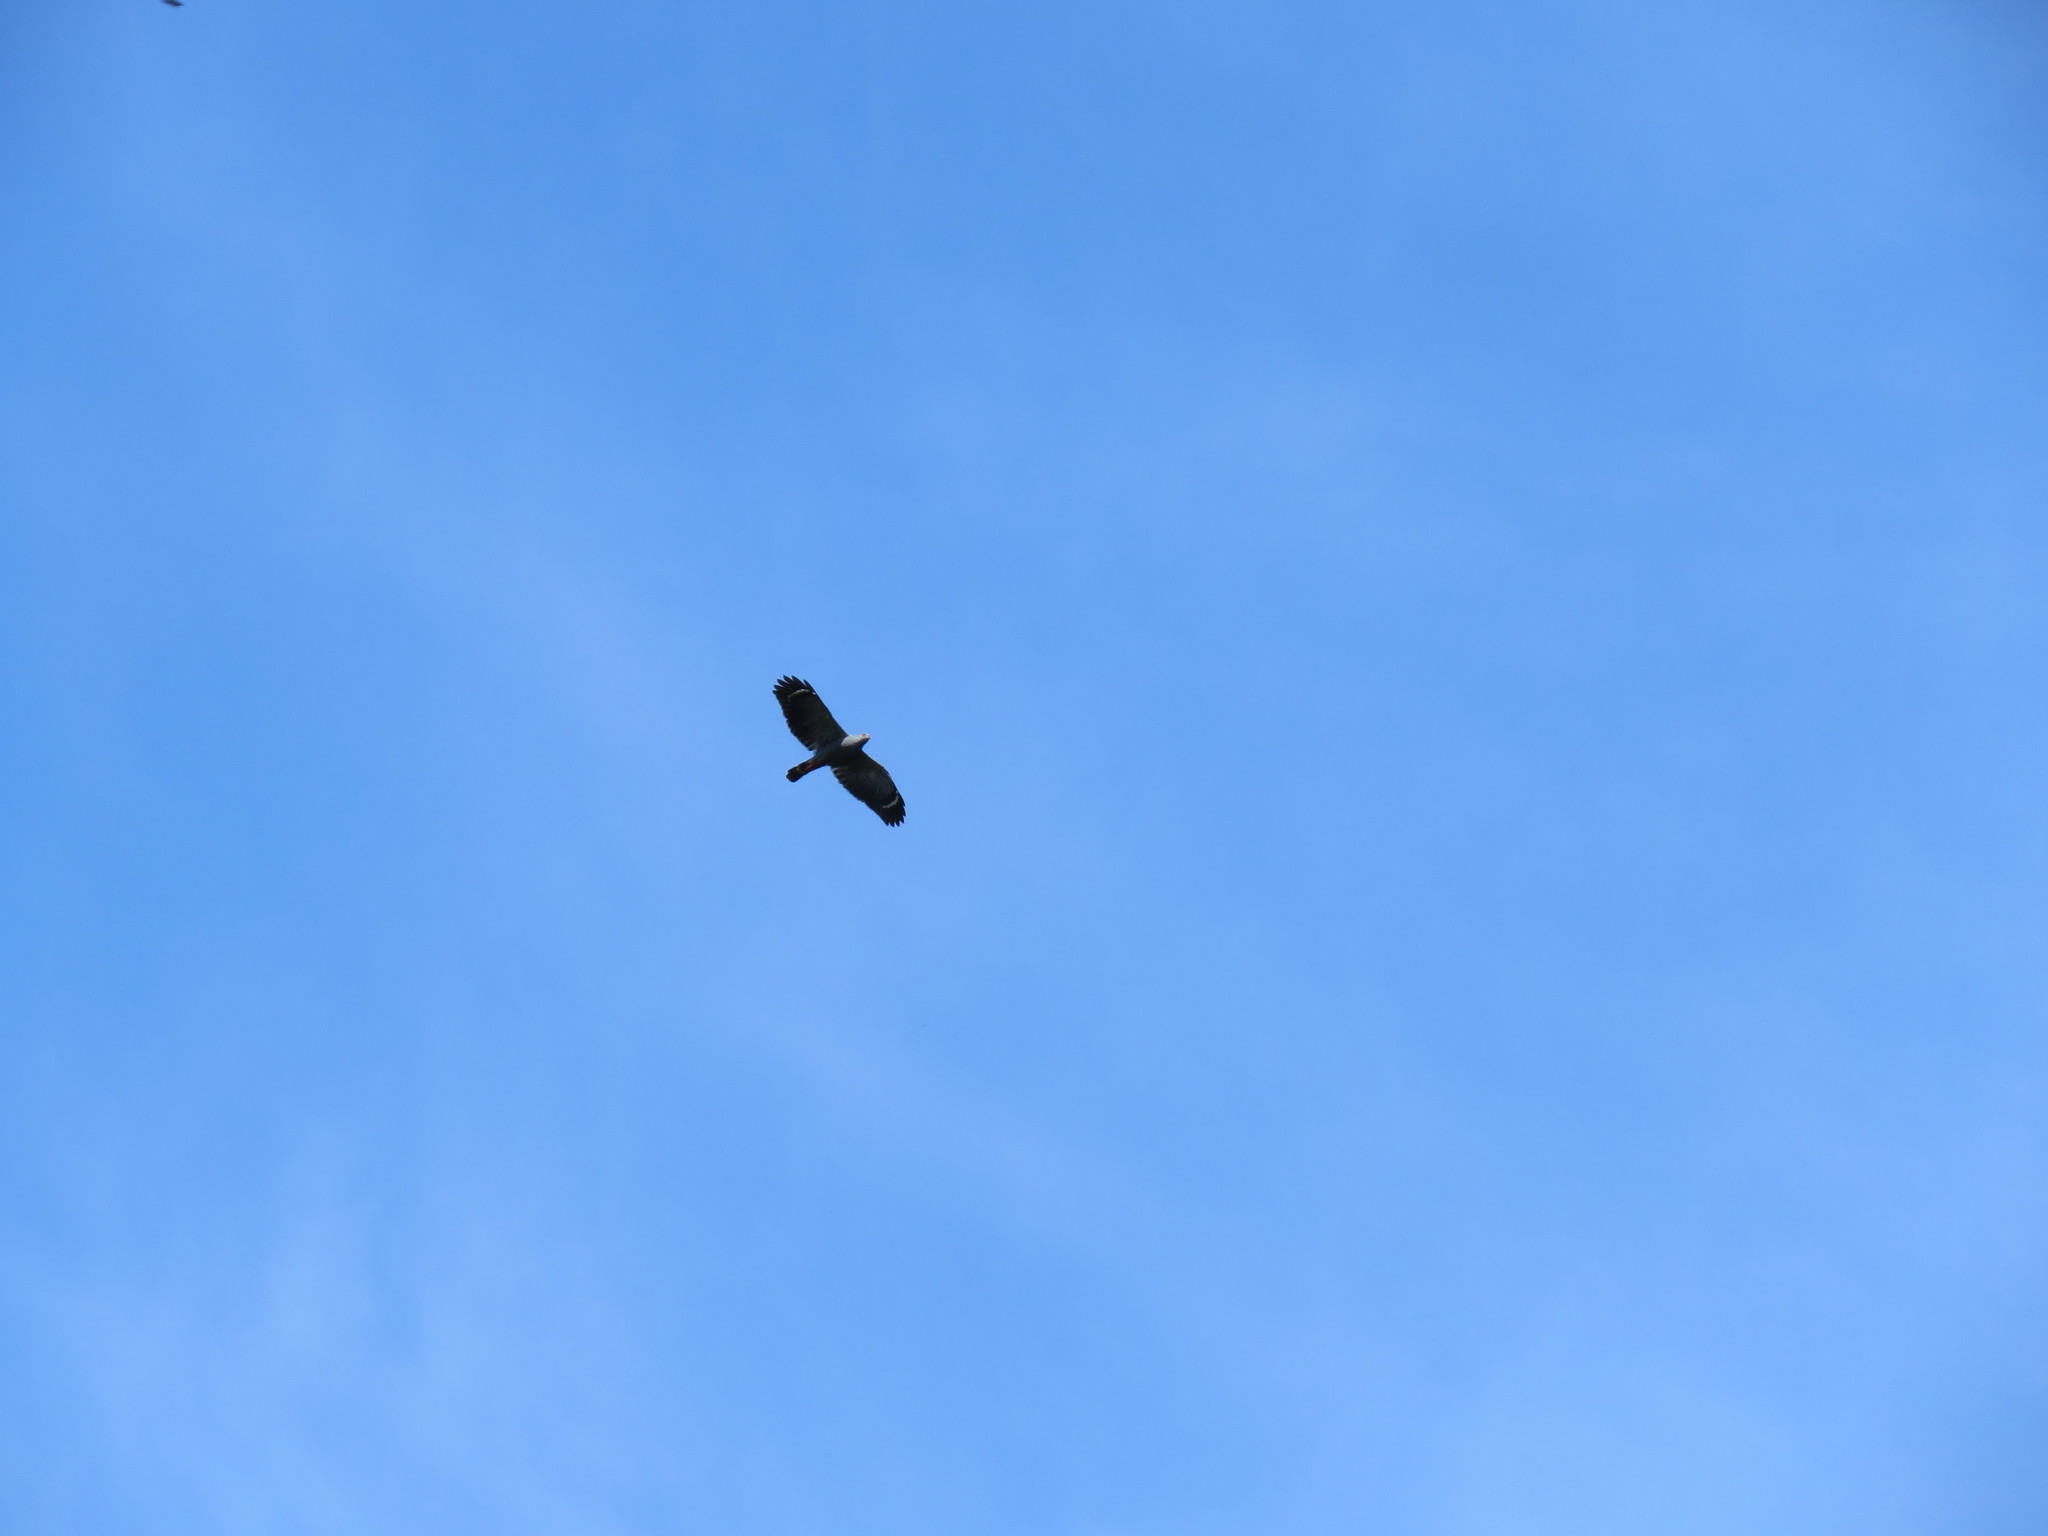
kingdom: Animalia
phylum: Chordata
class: Aves
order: Accipitriformes
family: Accipitridae
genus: Geranospiza
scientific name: Geranospiza caerulescens
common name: Crane hawk
